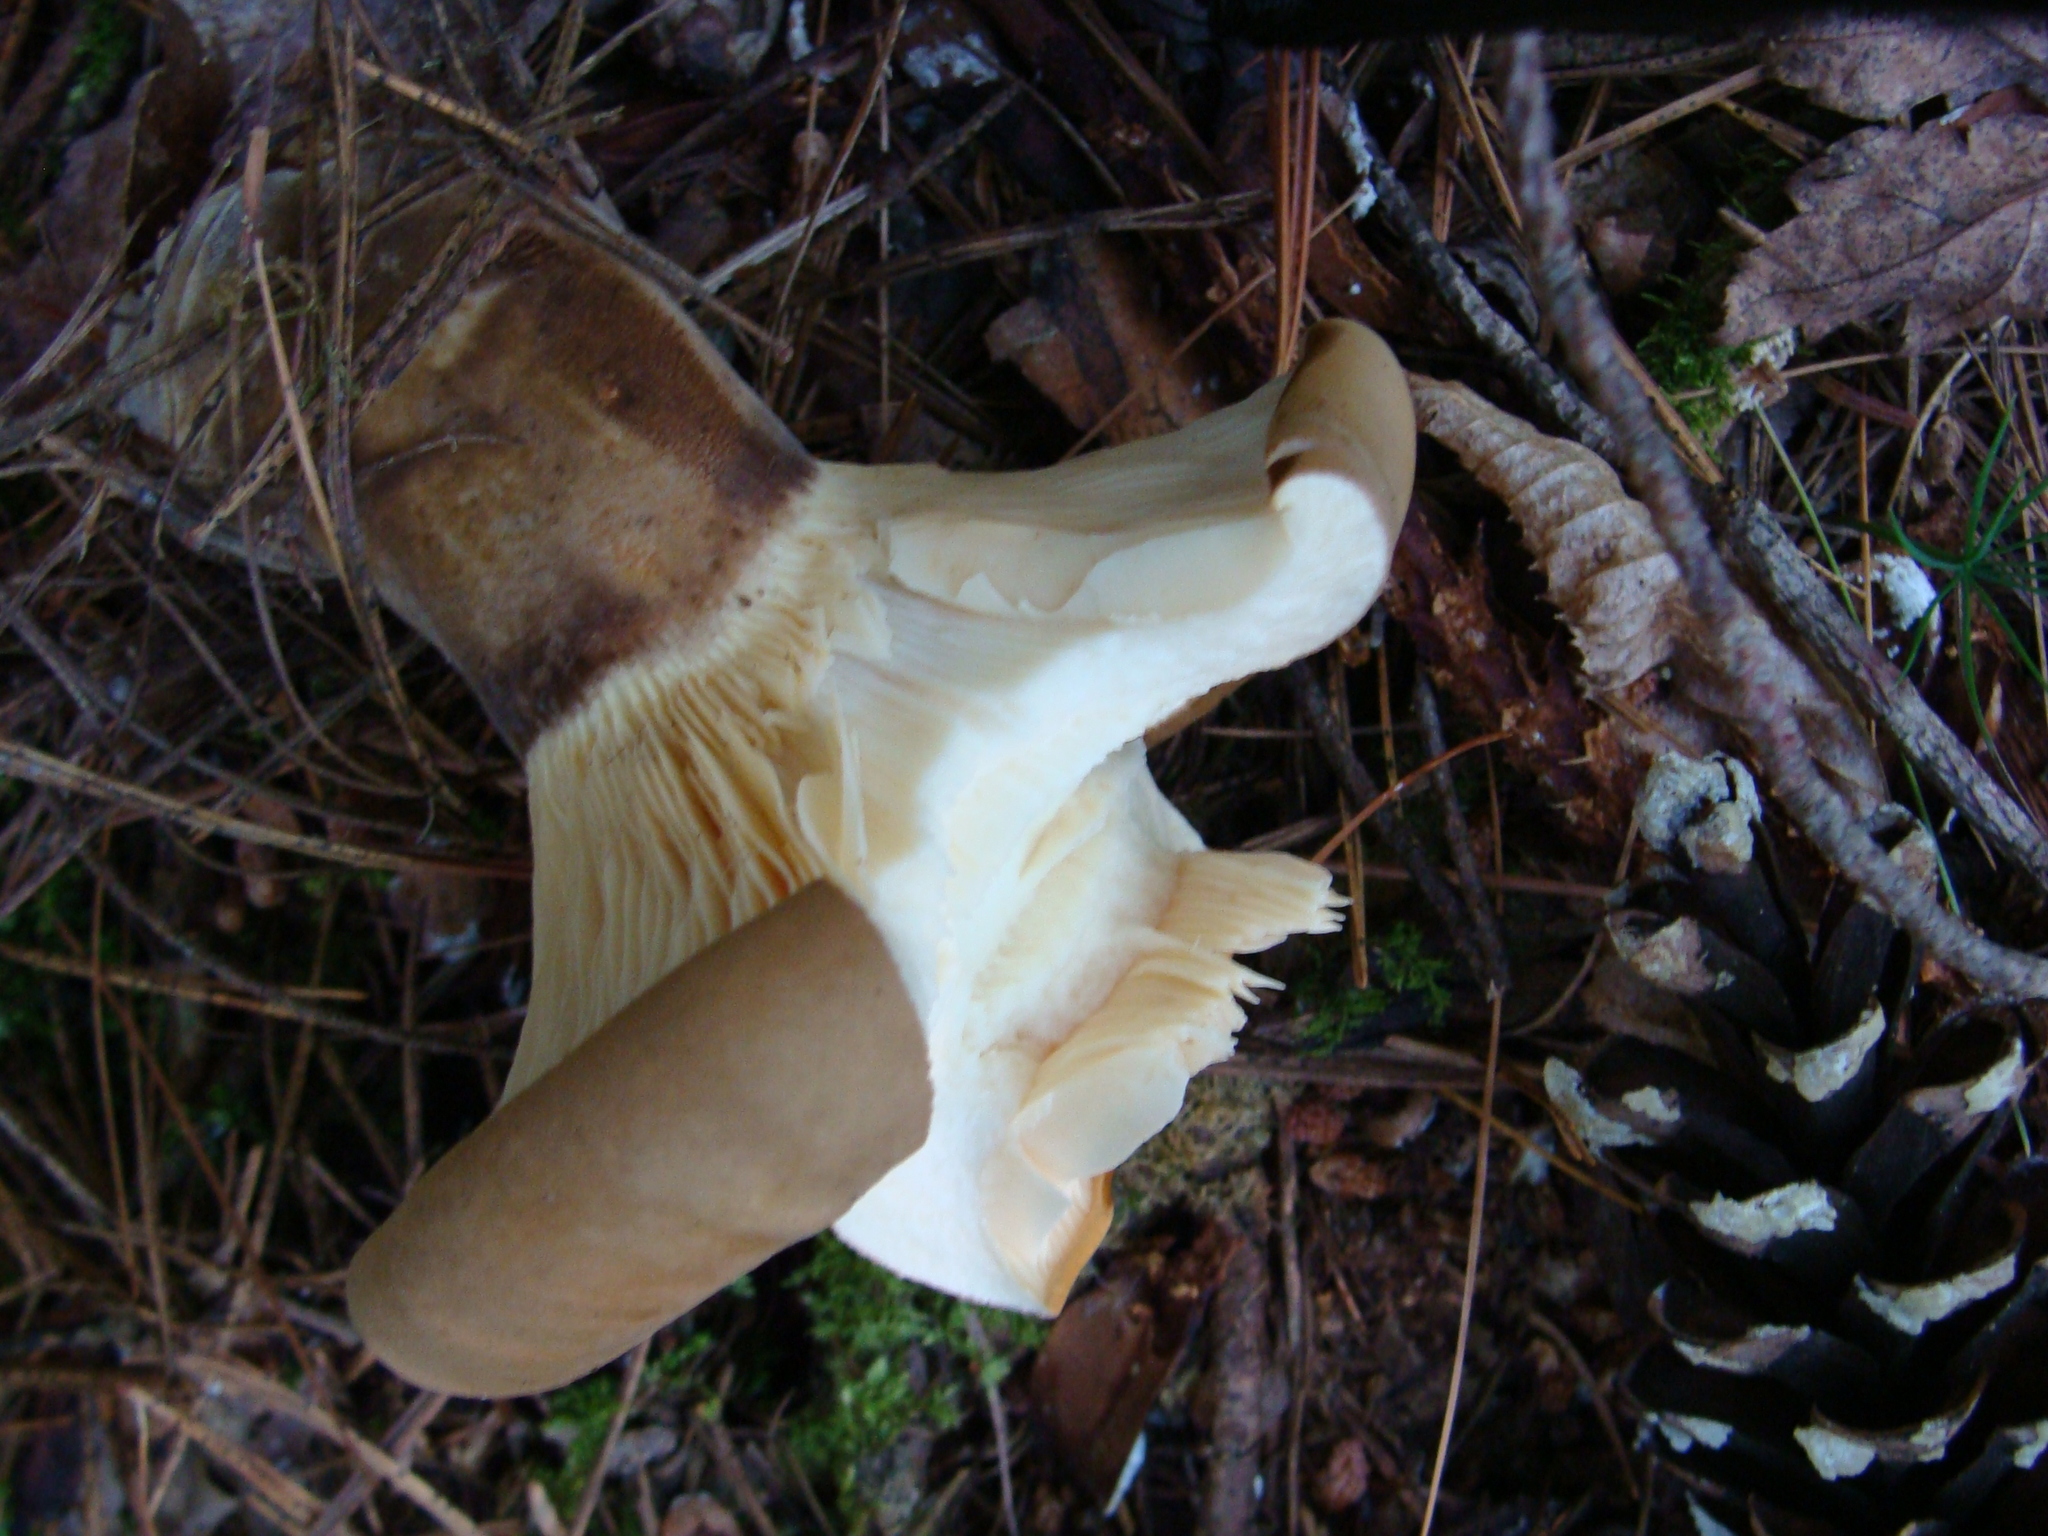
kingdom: Fungi
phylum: Basidiomycota
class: Agaricomycetes
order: Boletales
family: Tapinellaceae
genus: Tapinella
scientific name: Tapinella atrotomentosa
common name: Velvet rollrim
